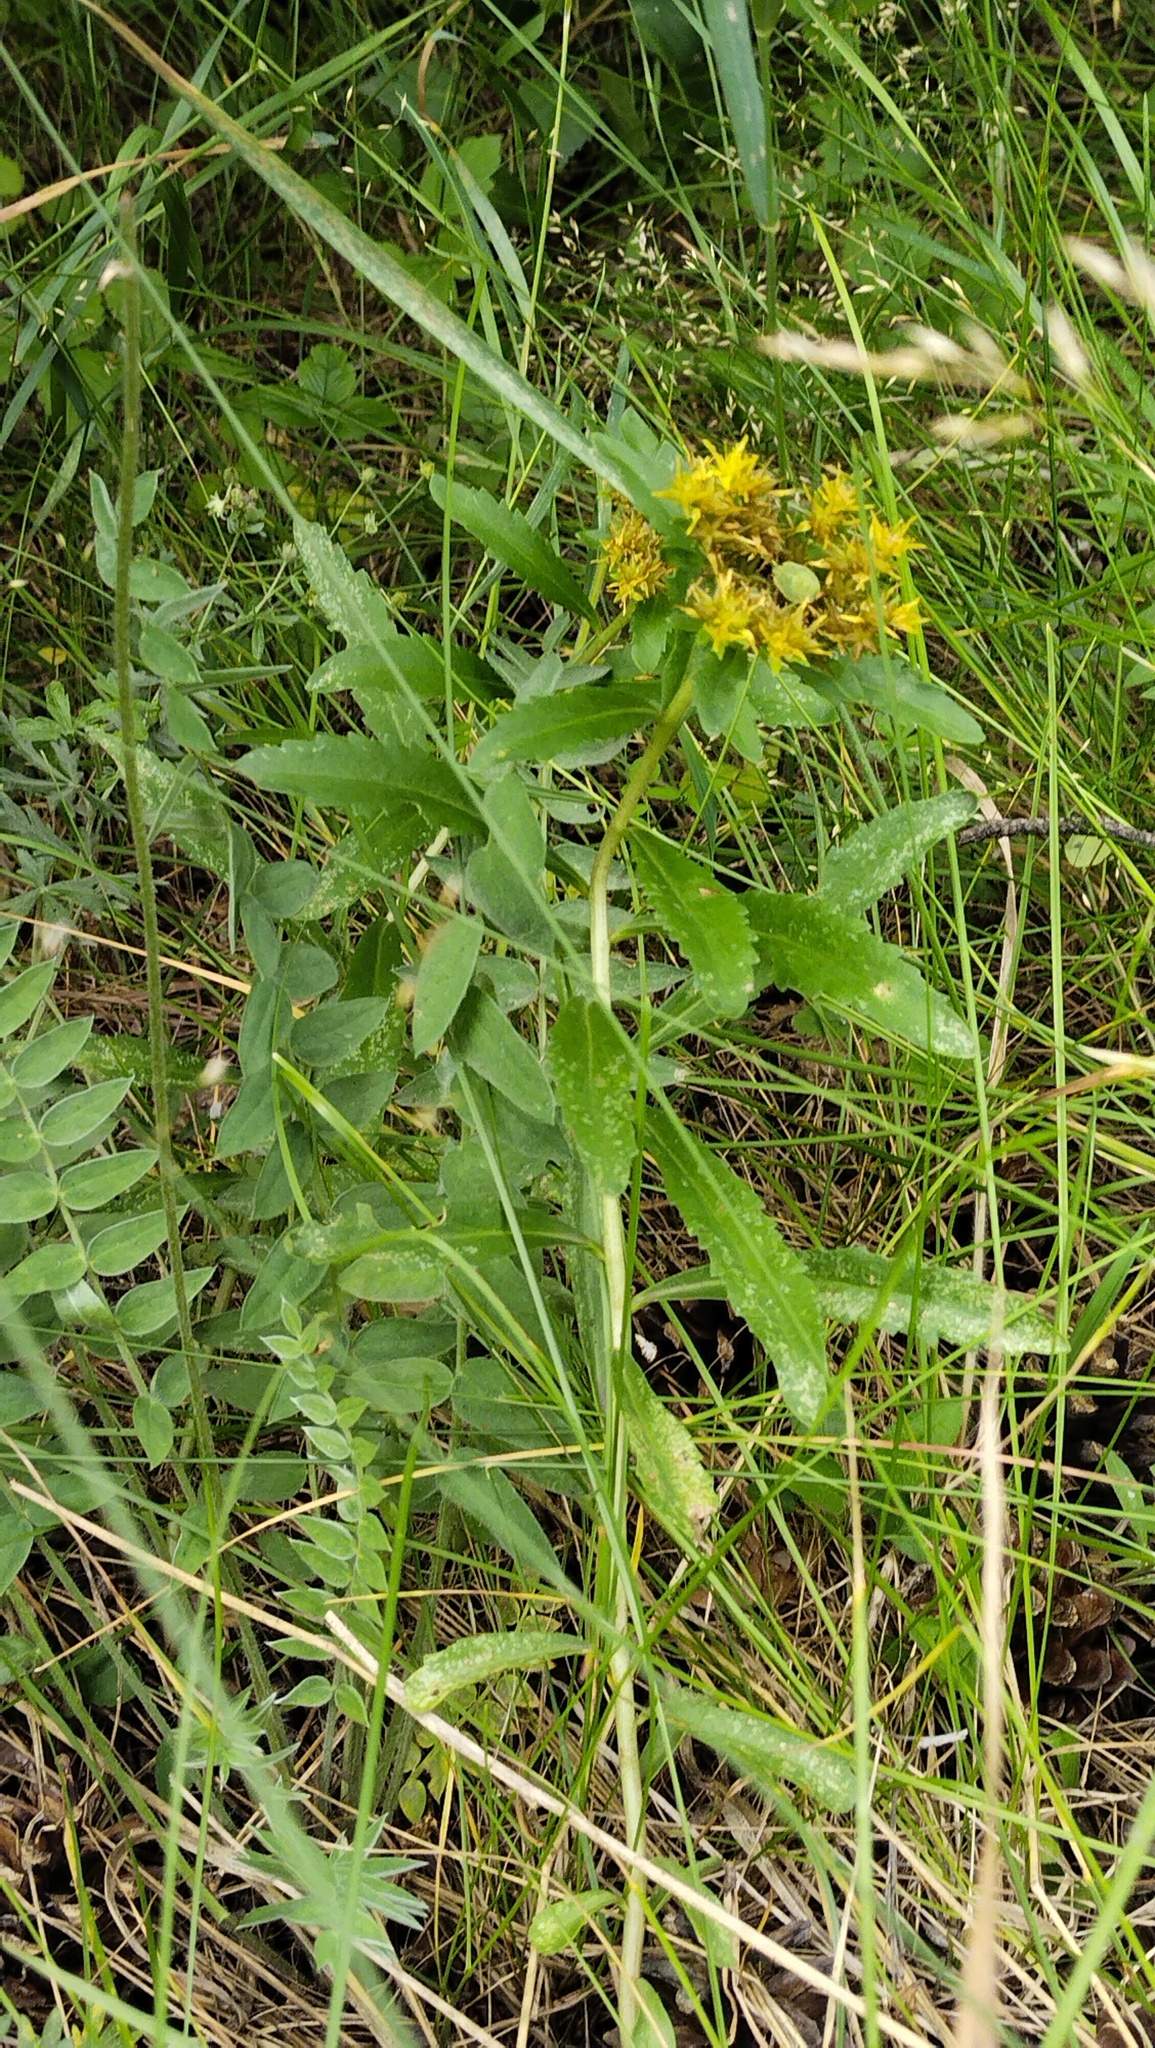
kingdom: Plantae
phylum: Tracheophyta
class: Magnoliopsida
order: Saxifragales
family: Crassulaceae
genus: Phedimus
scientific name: Phedimus aizoon
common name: Orpin aizoon
